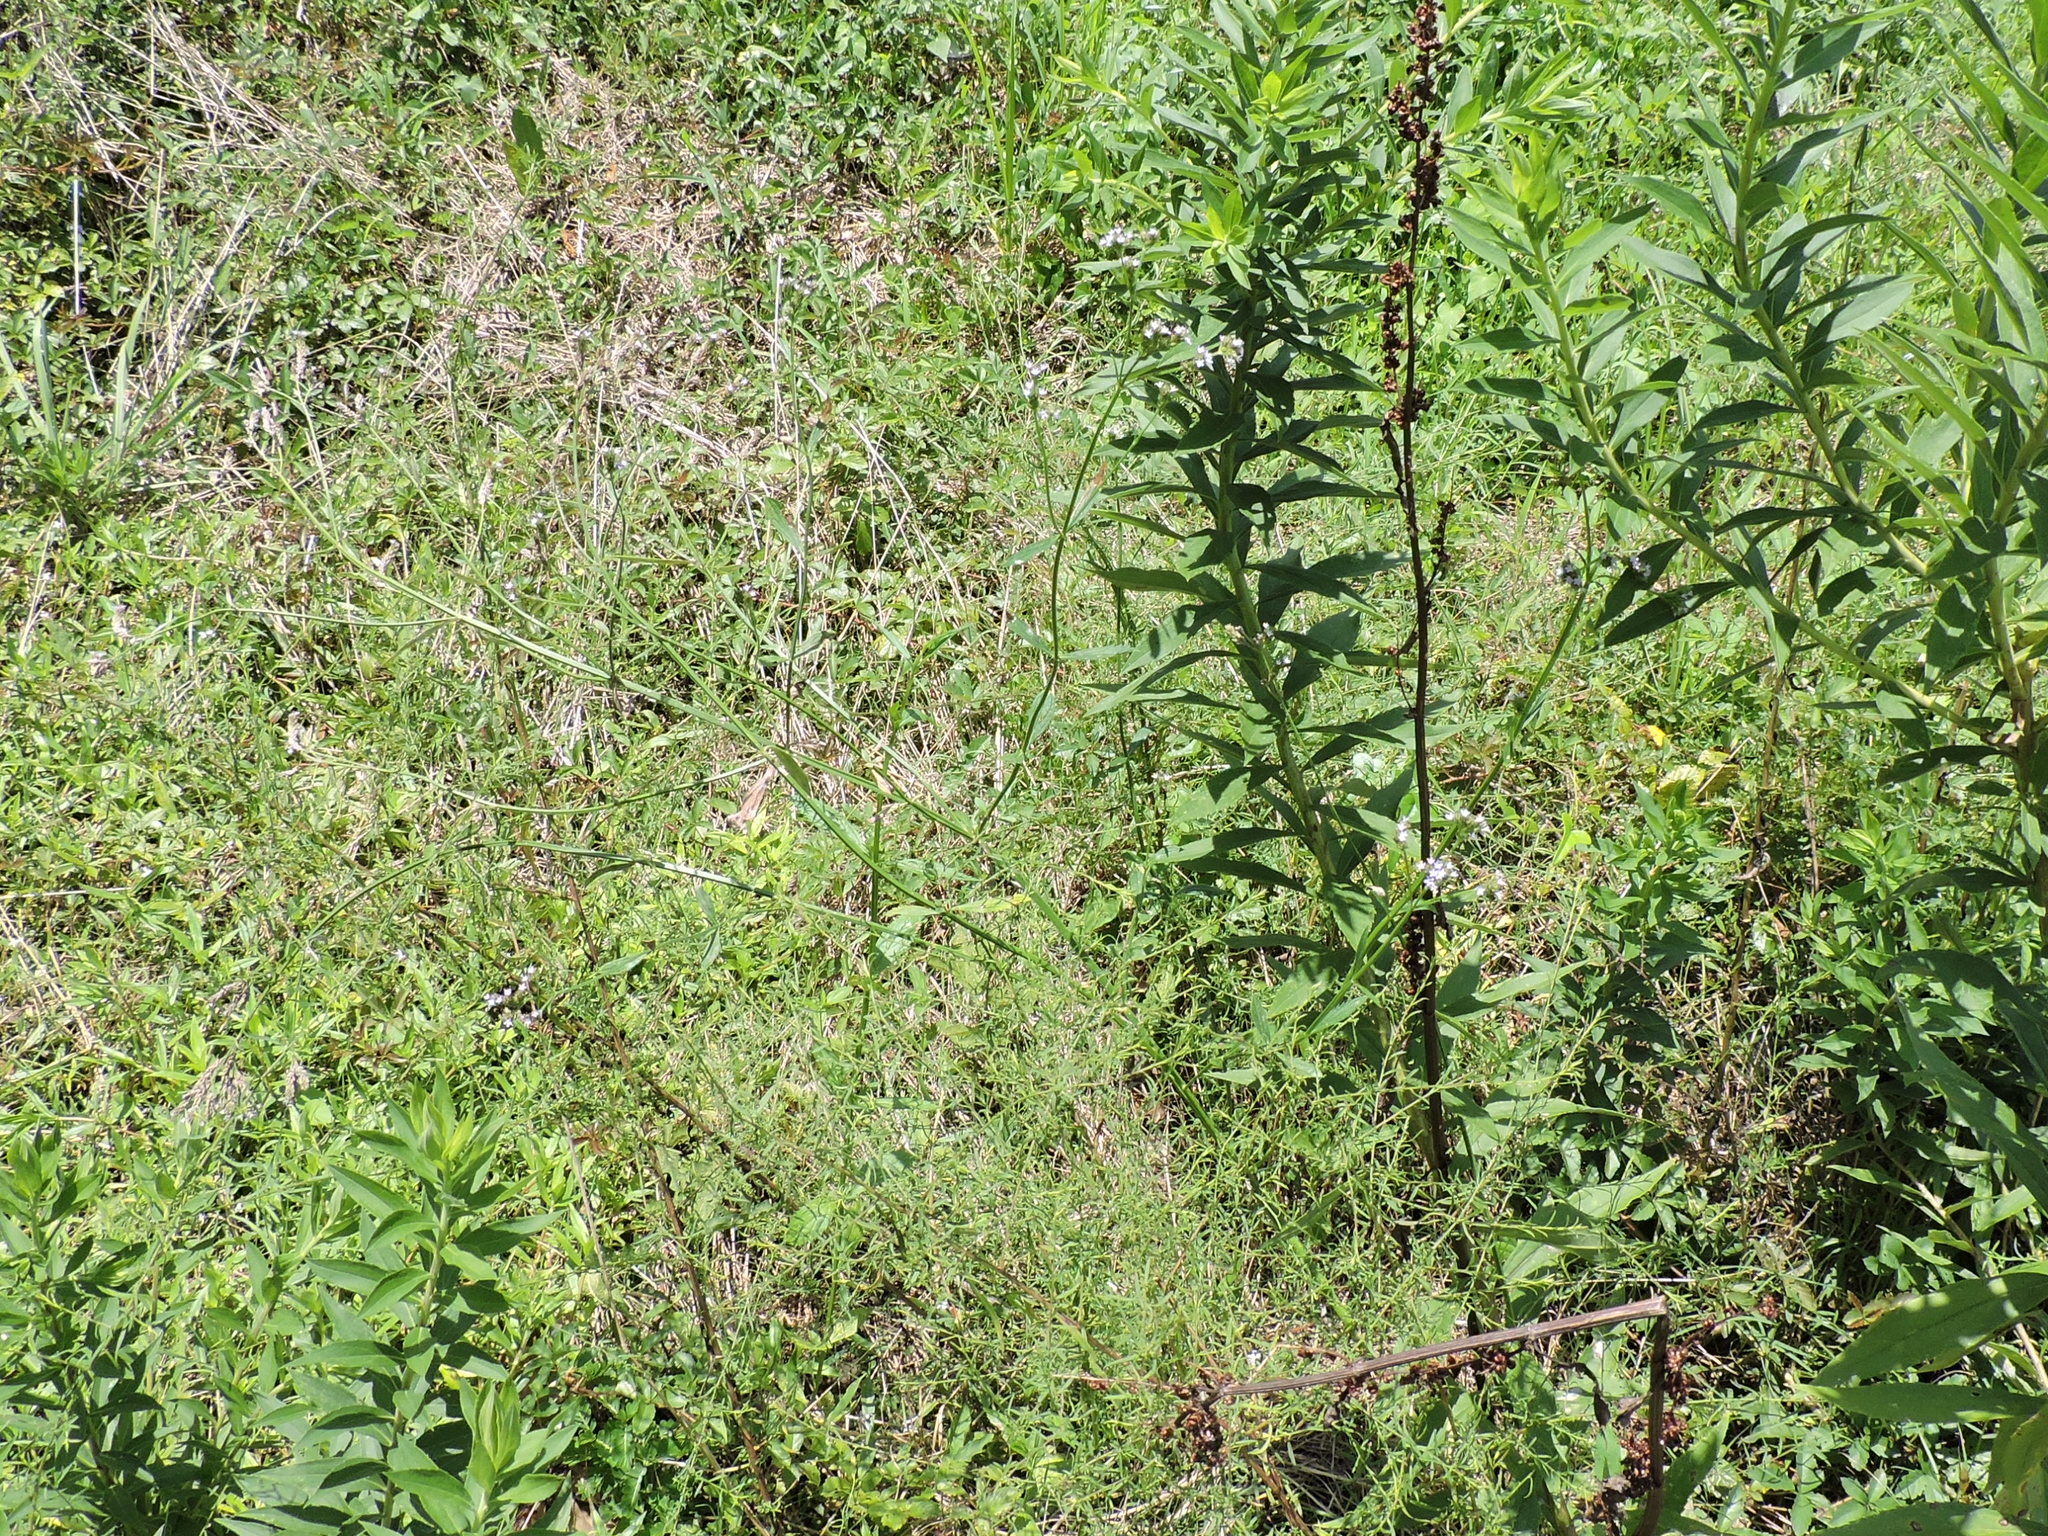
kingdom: Plantae
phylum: Tracheophyta
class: Magnoliopsida
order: Lamiales
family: Verbenaceae
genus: Verbena
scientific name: Verbena brasiliensis
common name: Brazilian vervain
